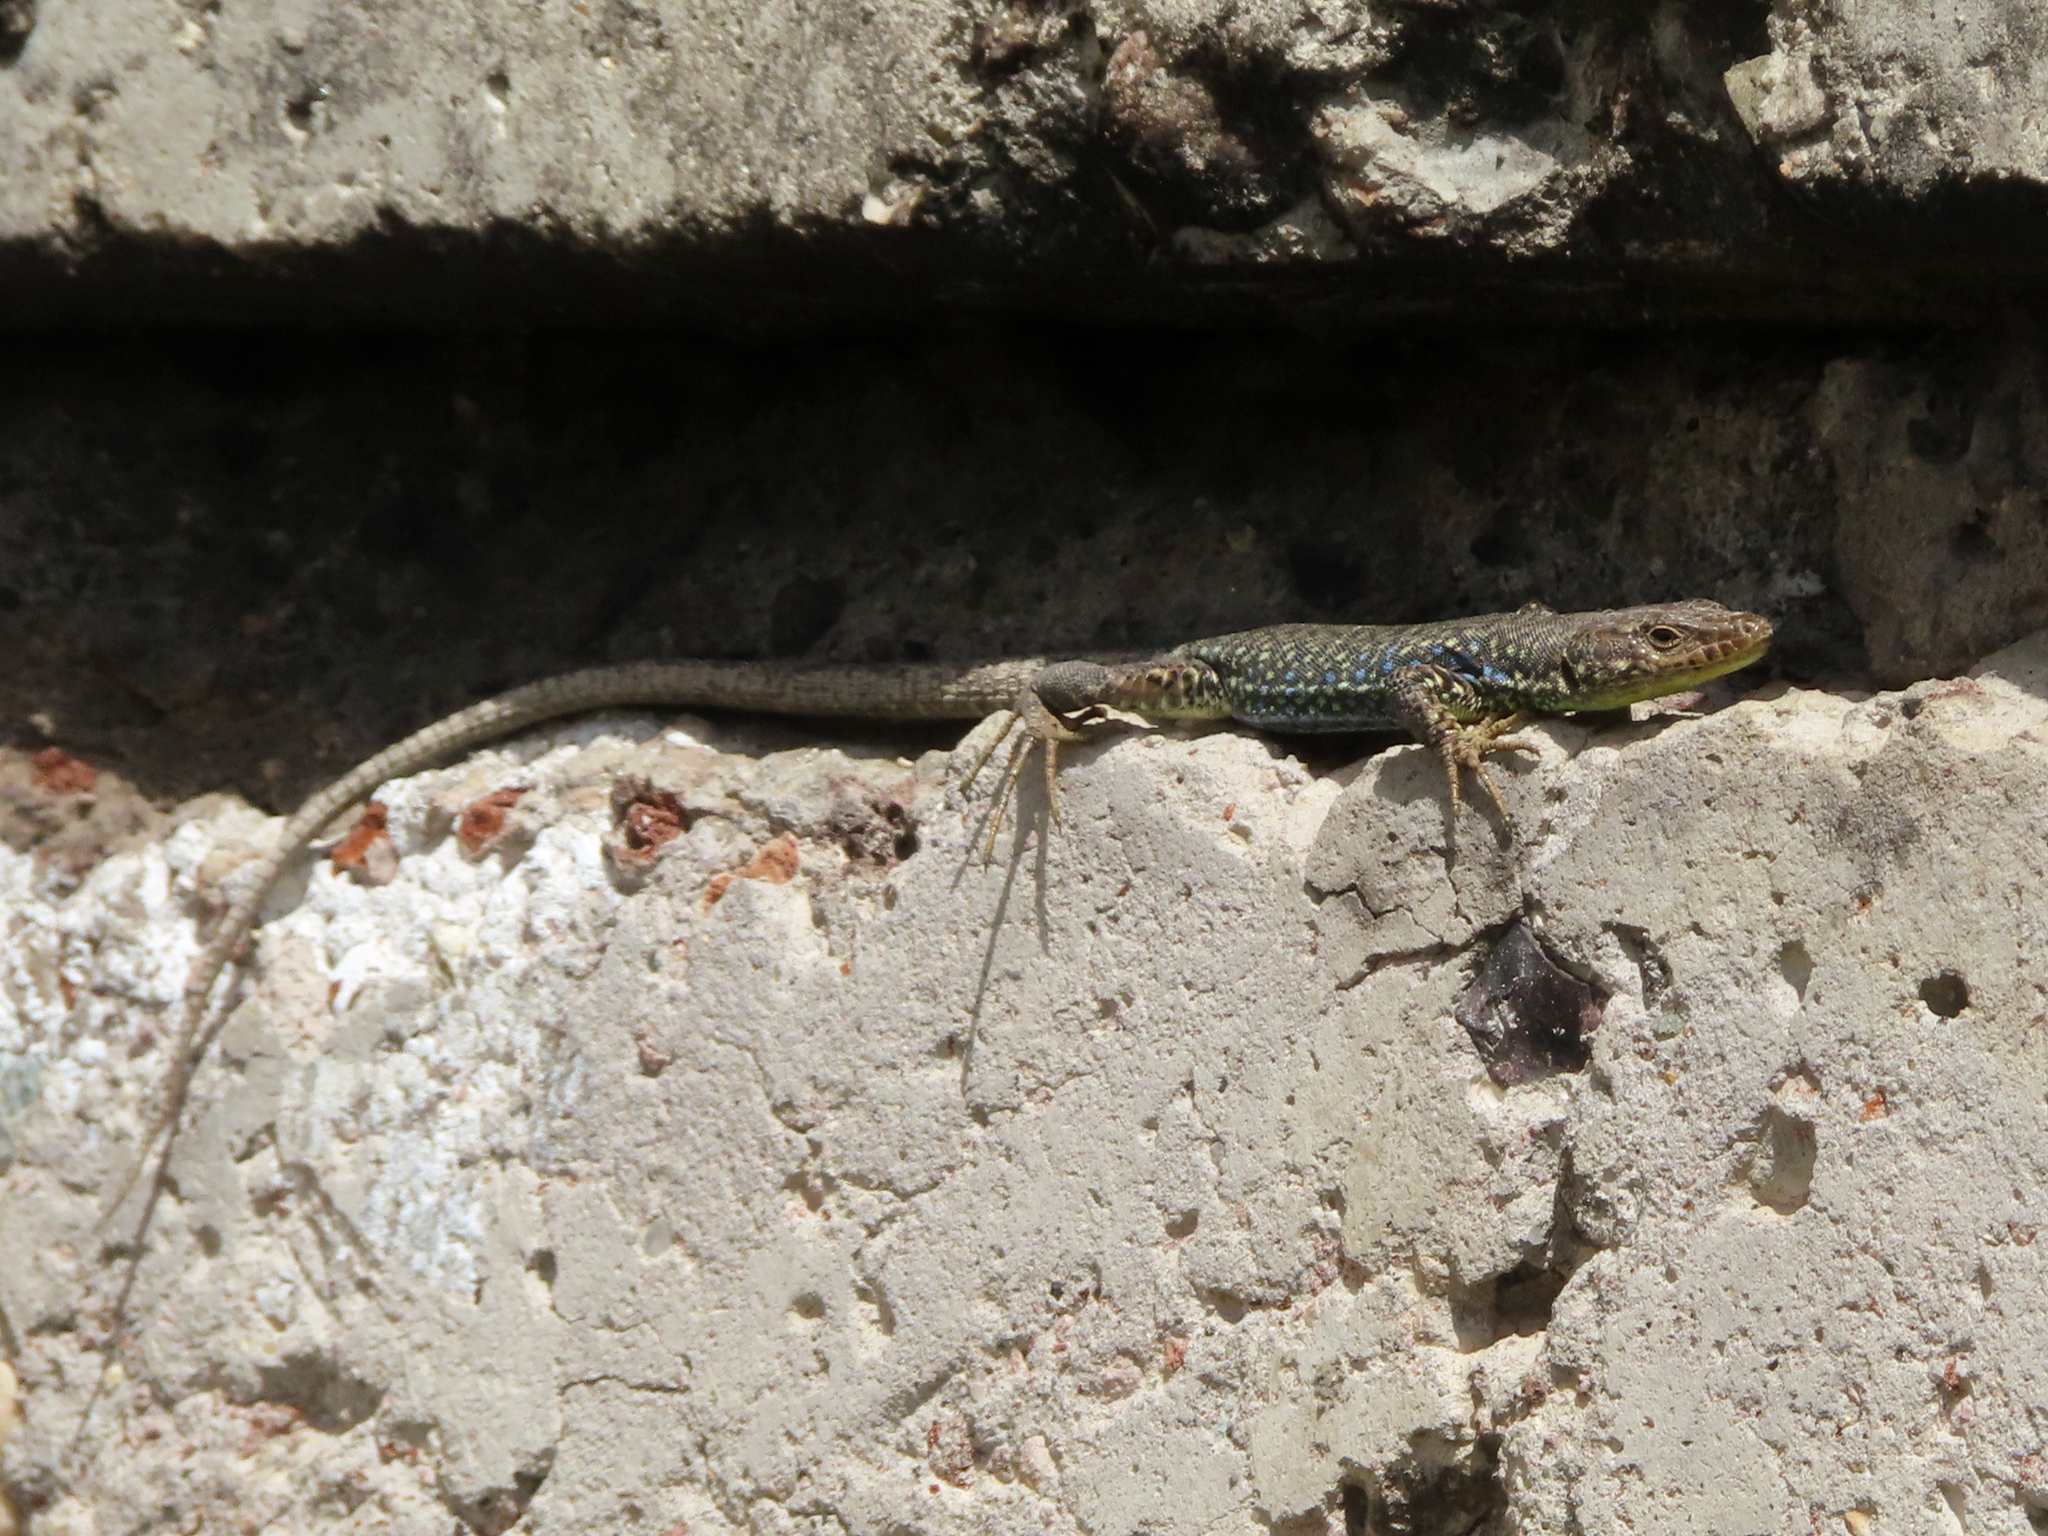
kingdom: Animalia
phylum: Chordata
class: Squamata
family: Lacertidae
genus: Darevskia
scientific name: Darevskia
